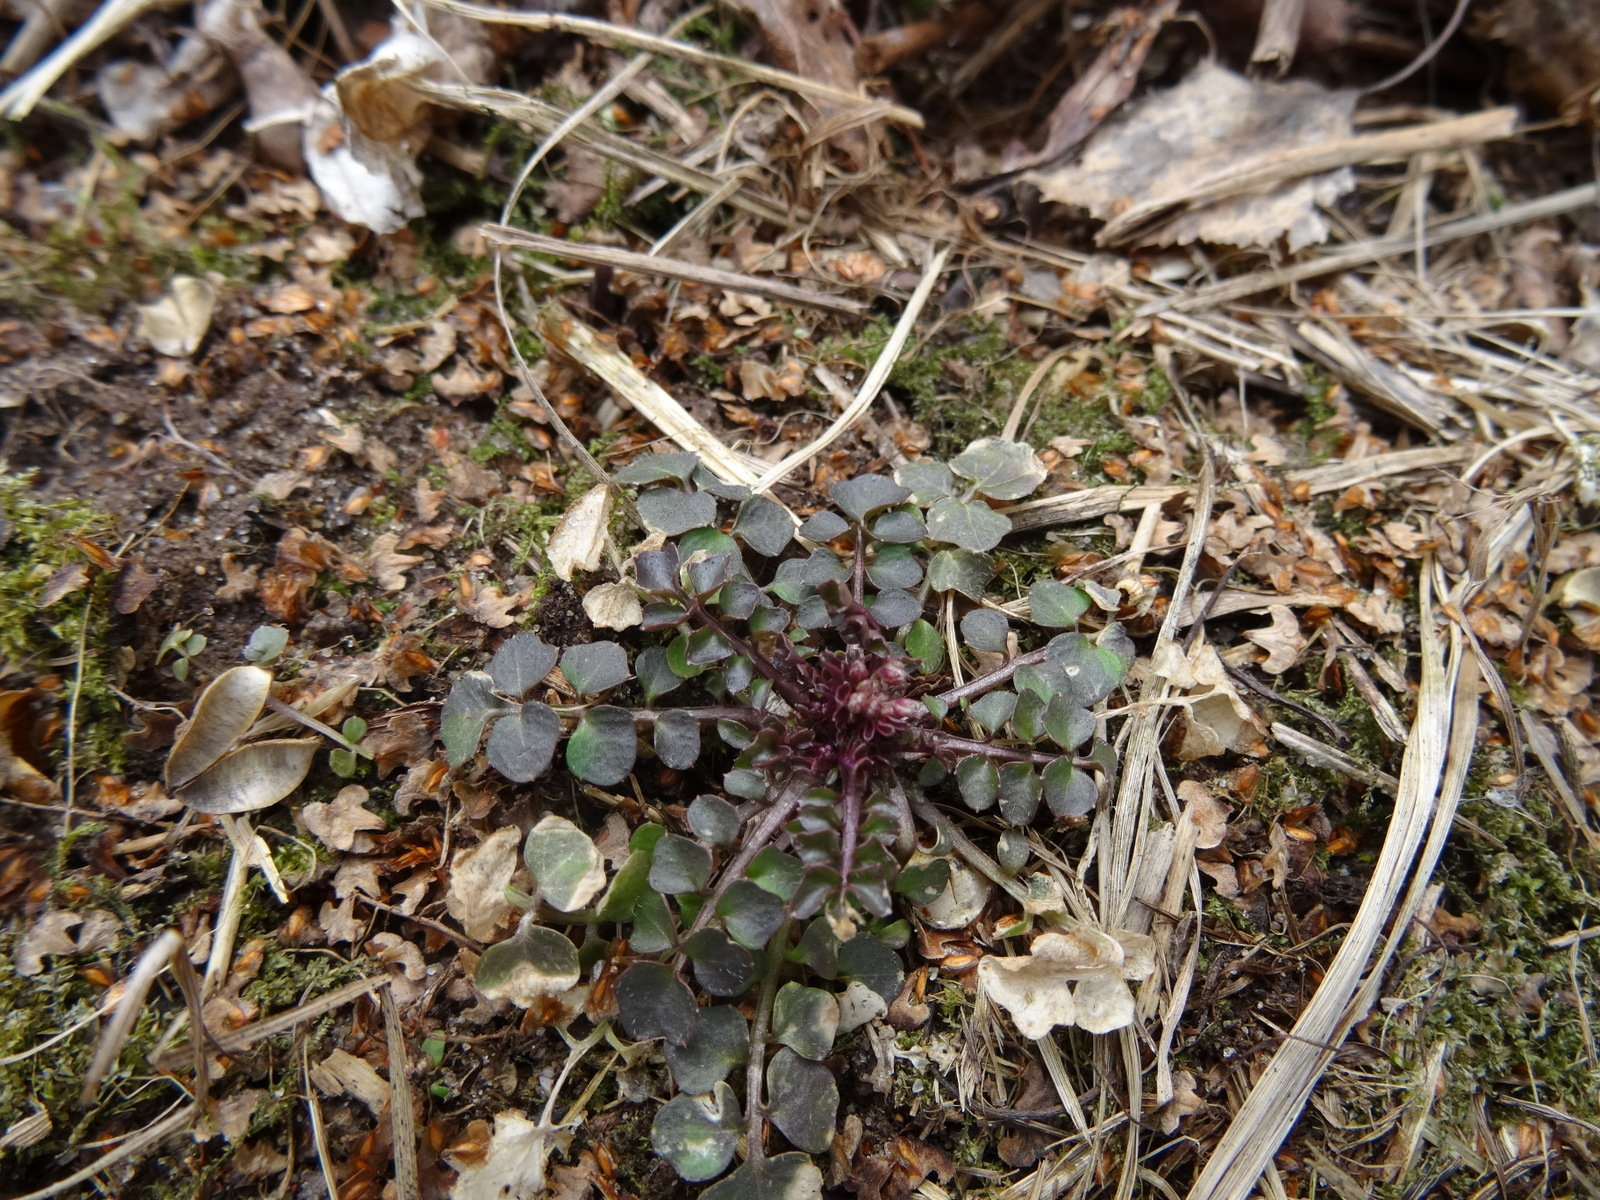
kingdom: Plantae
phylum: Tracheophyta
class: Magnoliopsida
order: Brassicales
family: Brassicaceae
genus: Cardamine
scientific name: Cardamine hirsuta
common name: Hairy bittercress
